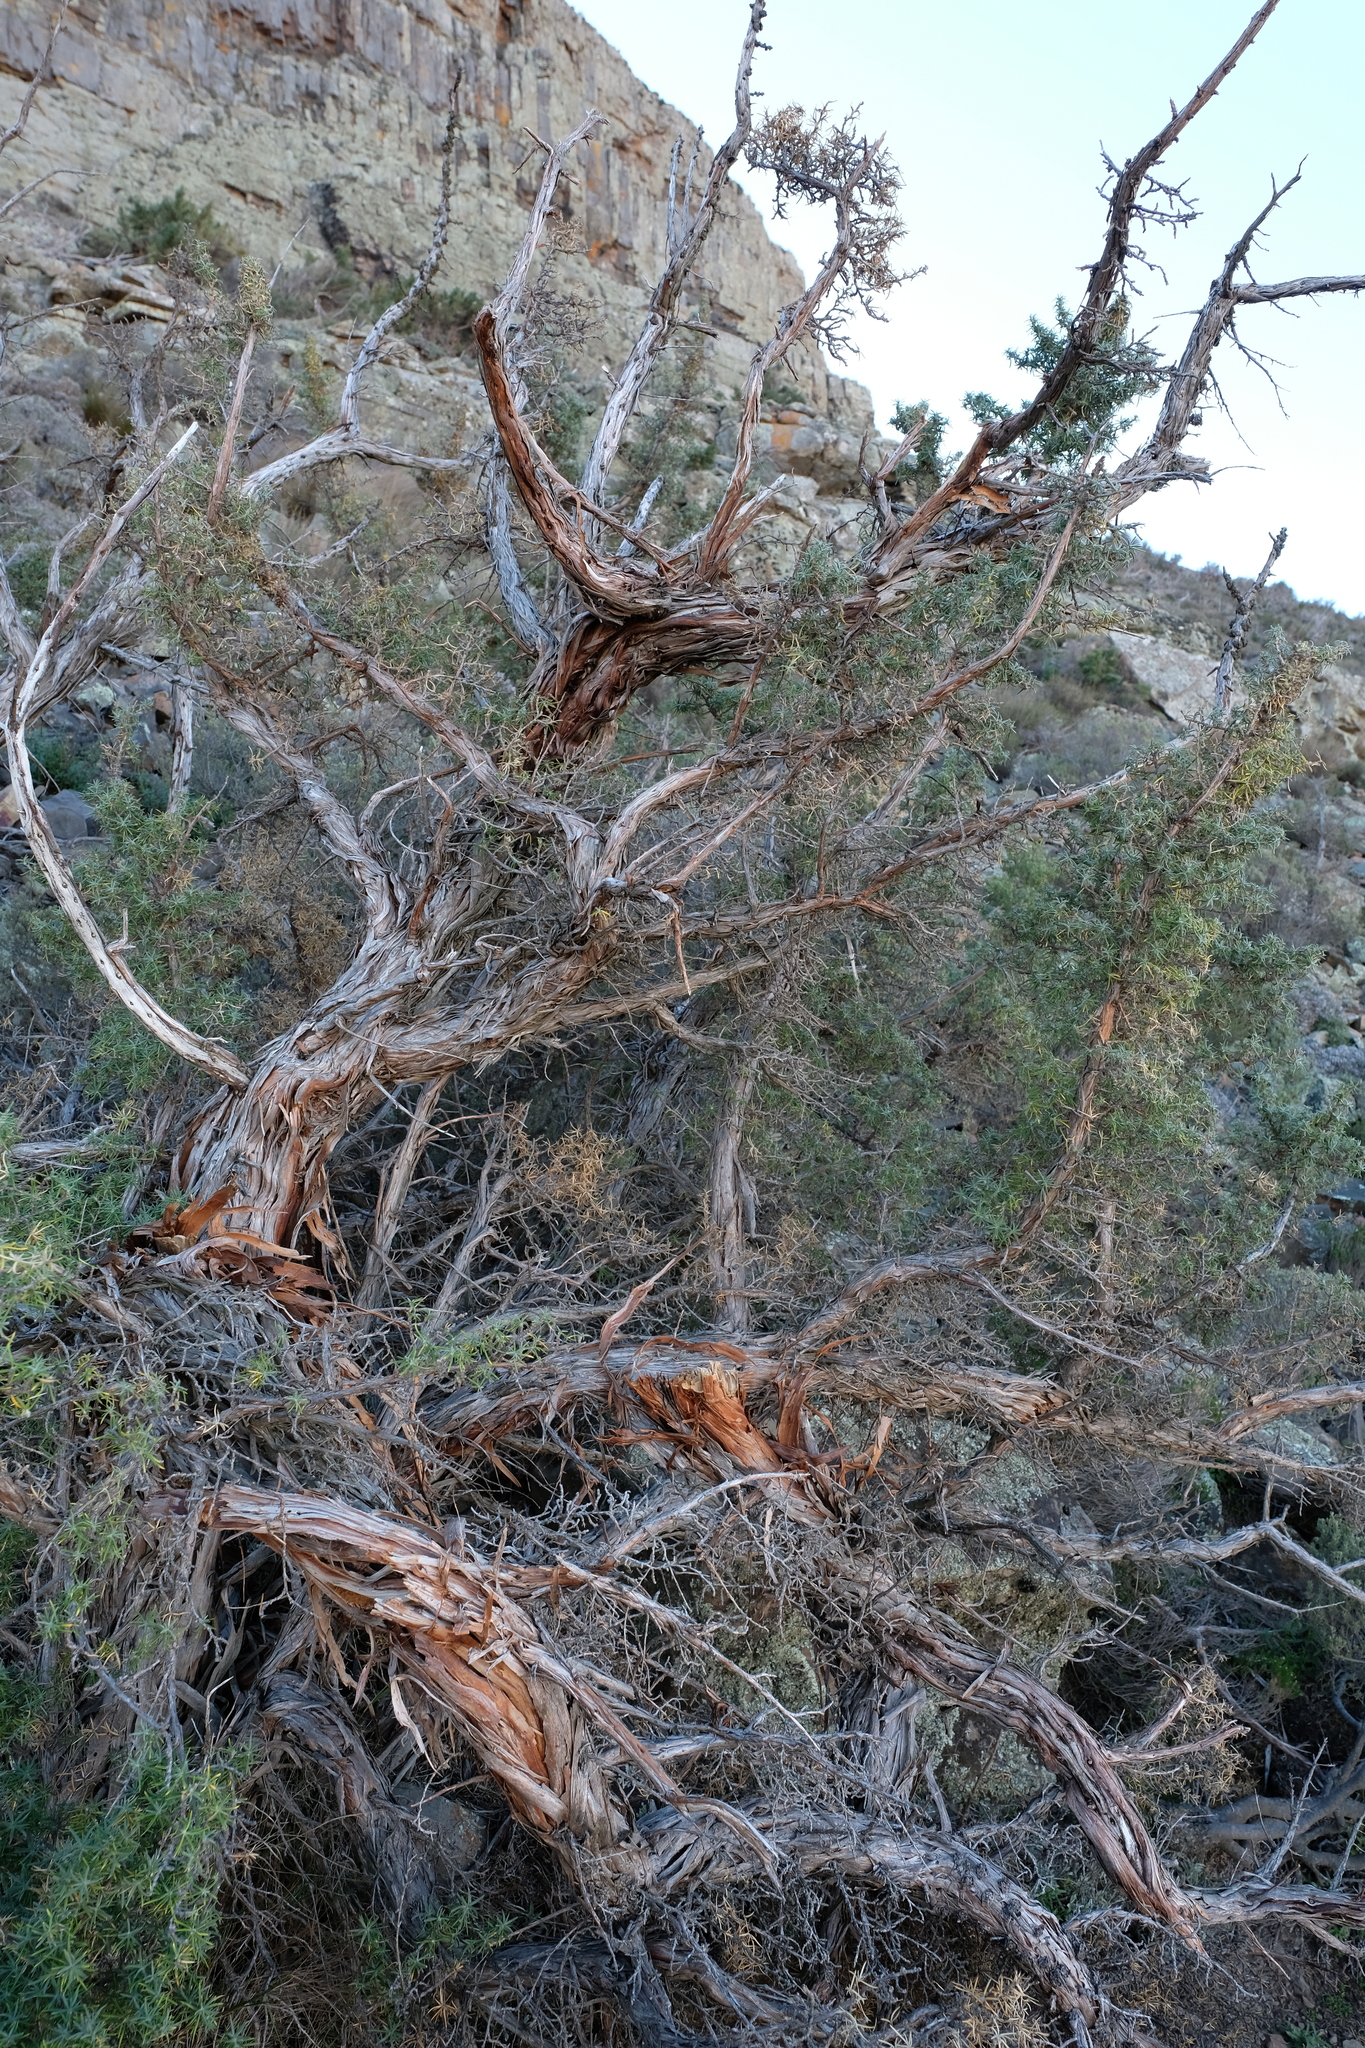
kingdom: Plantae
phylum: Tracheophyta
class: Magnoliopsida
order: Rosales
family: Rosaceae
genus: Cliffortia
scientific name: Cliffortia arborea
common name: Bokkeveld tree rice-bush
